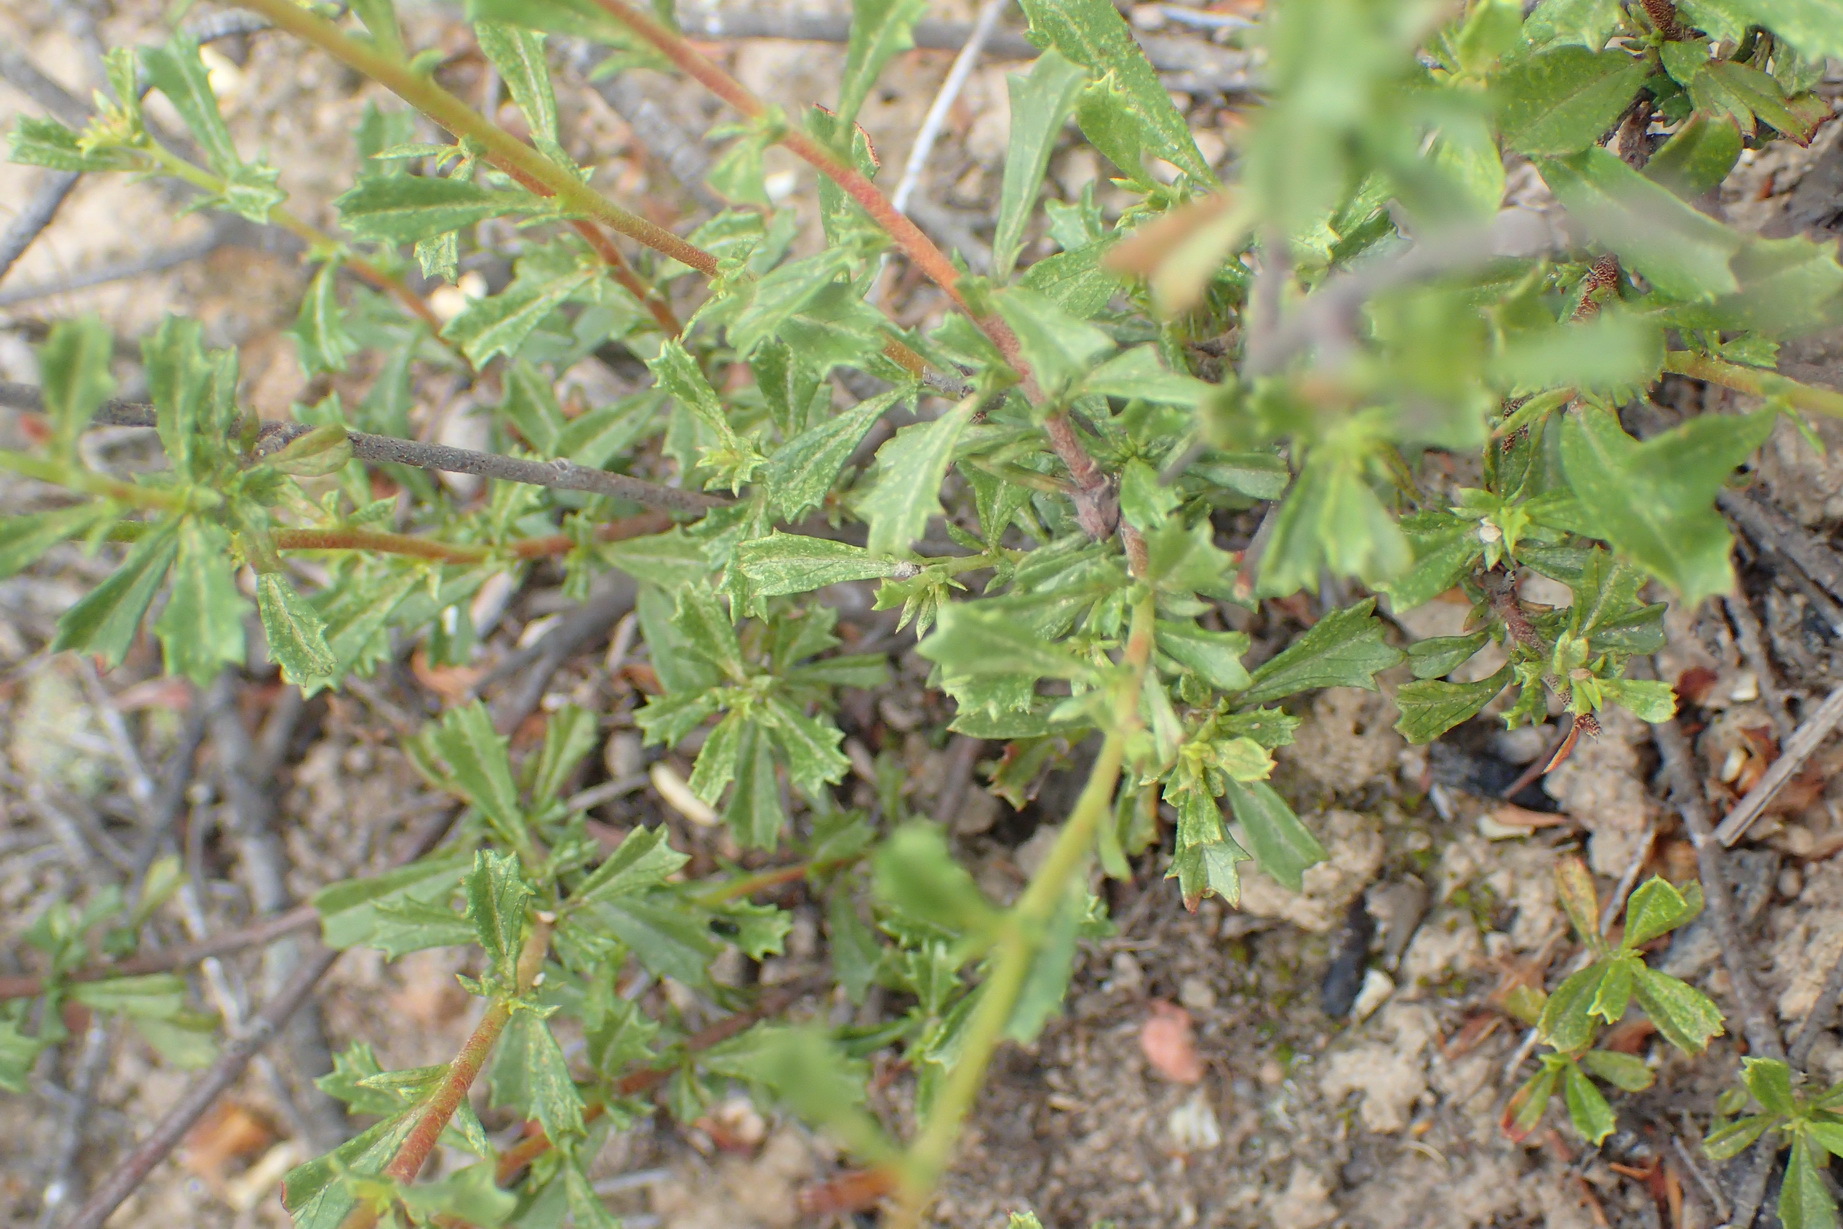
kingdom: Plantae
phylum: Tracheophyta
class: Magnoliopsida
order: Malvales
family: Malvaceae
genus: Hermannia
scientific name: Hermannia flammea
